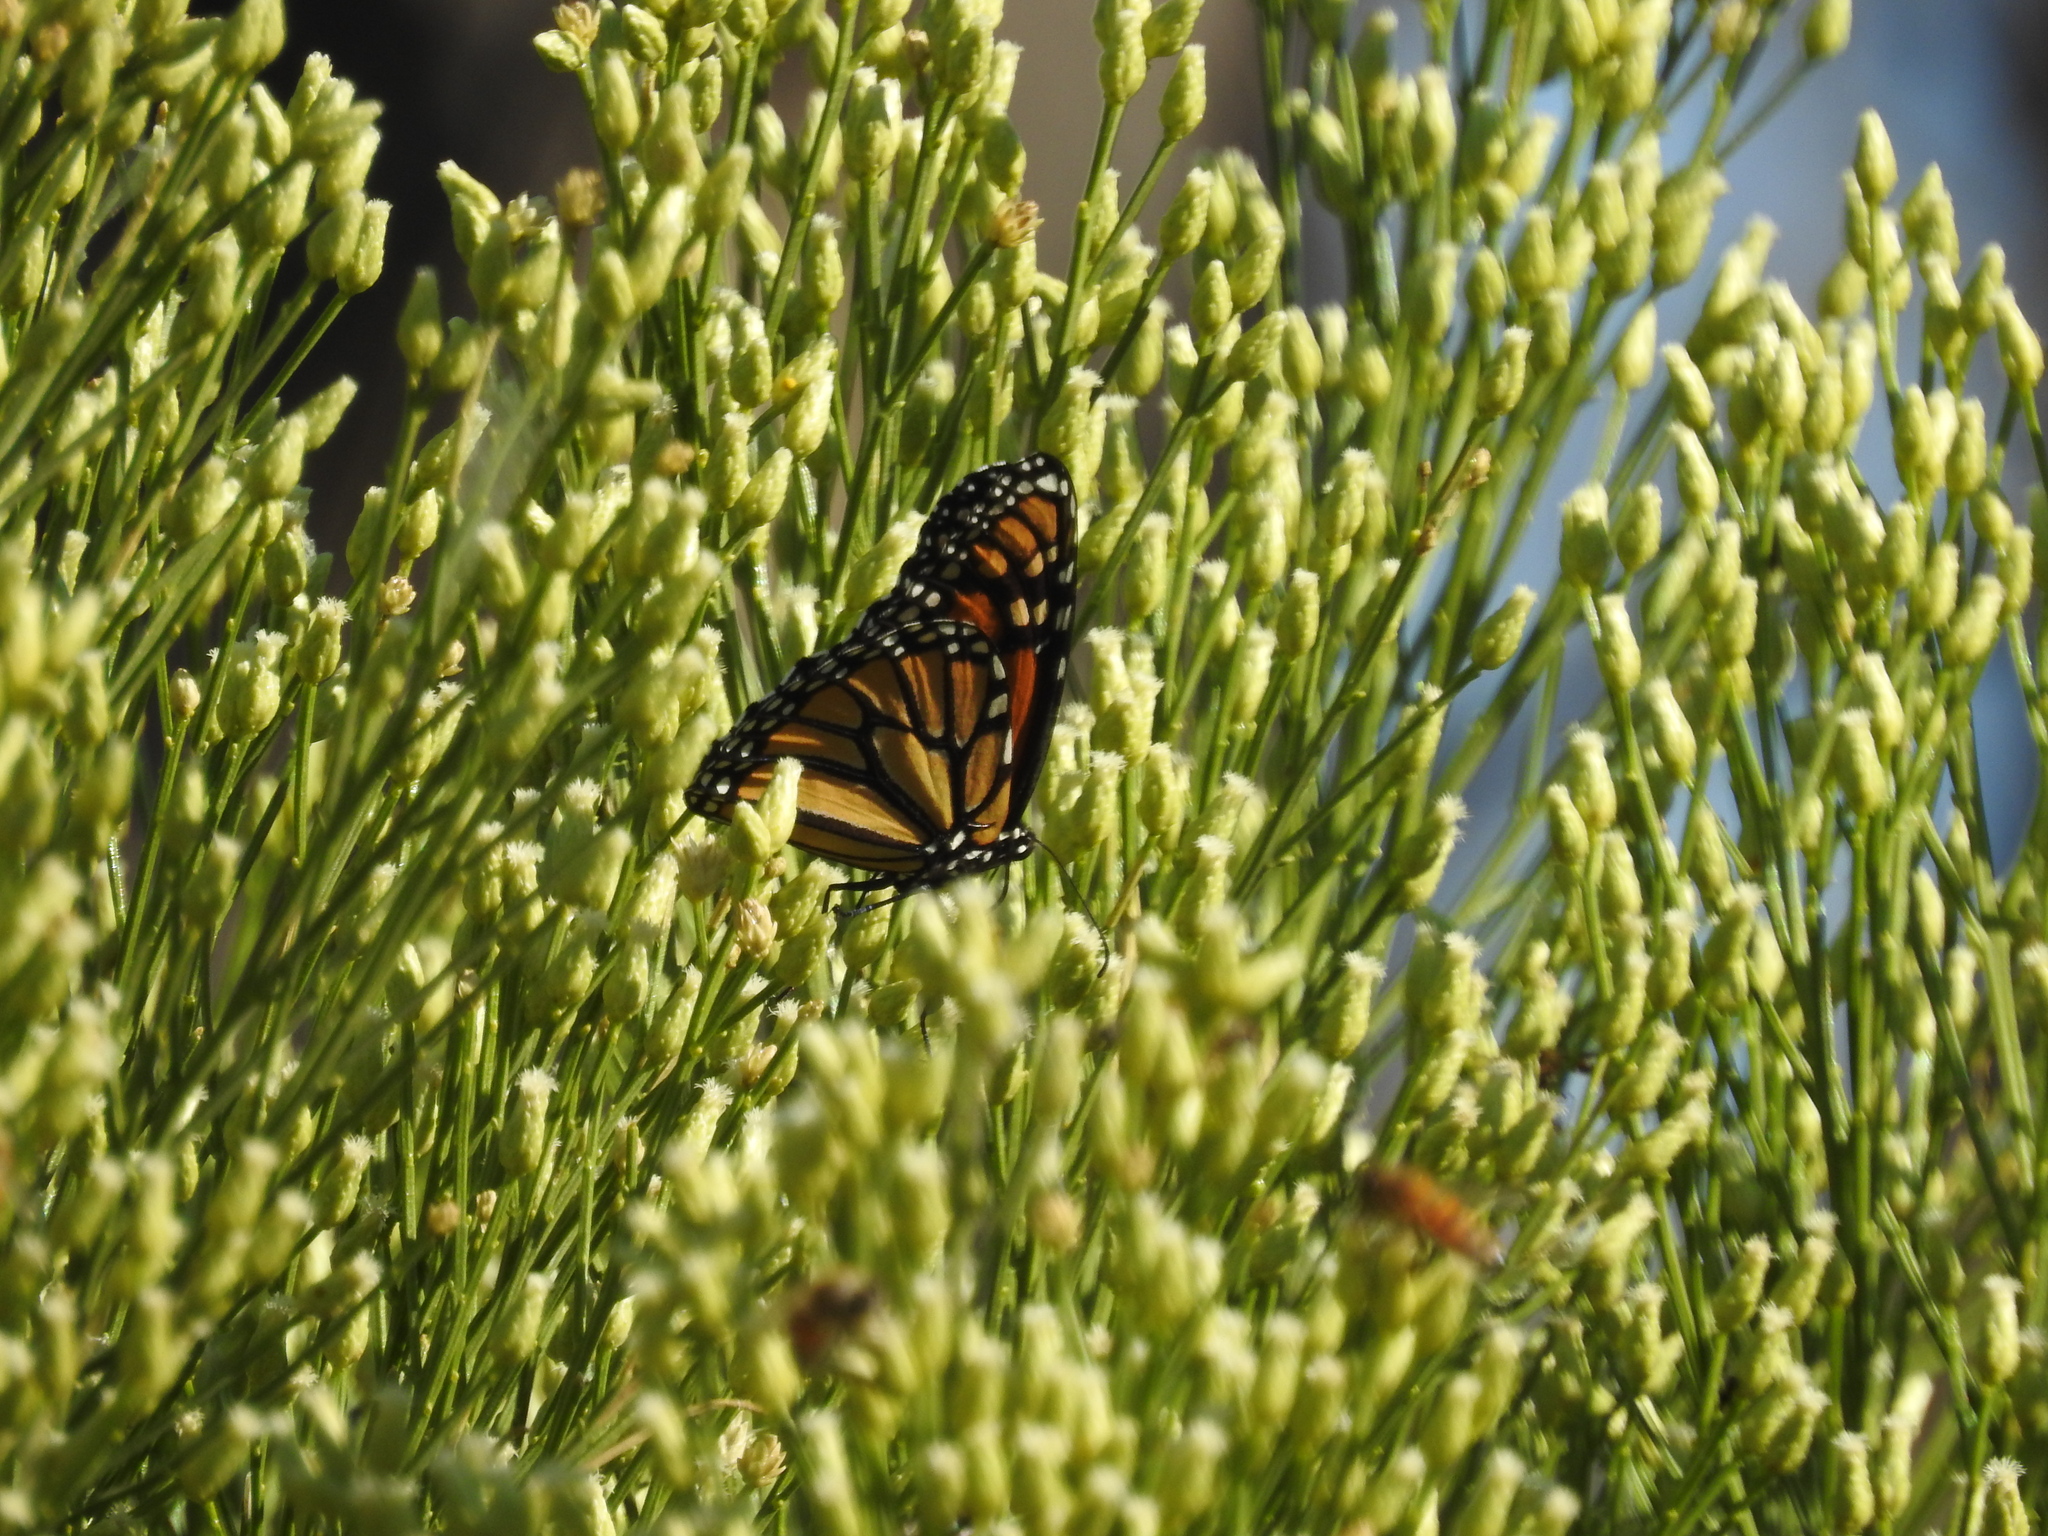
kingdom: Animalia
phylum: Arthropoda
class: Insecta
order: Lepidoptera
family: Nymphalidae
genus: Danaus
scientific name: Danaus plexippus
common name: Monarch
